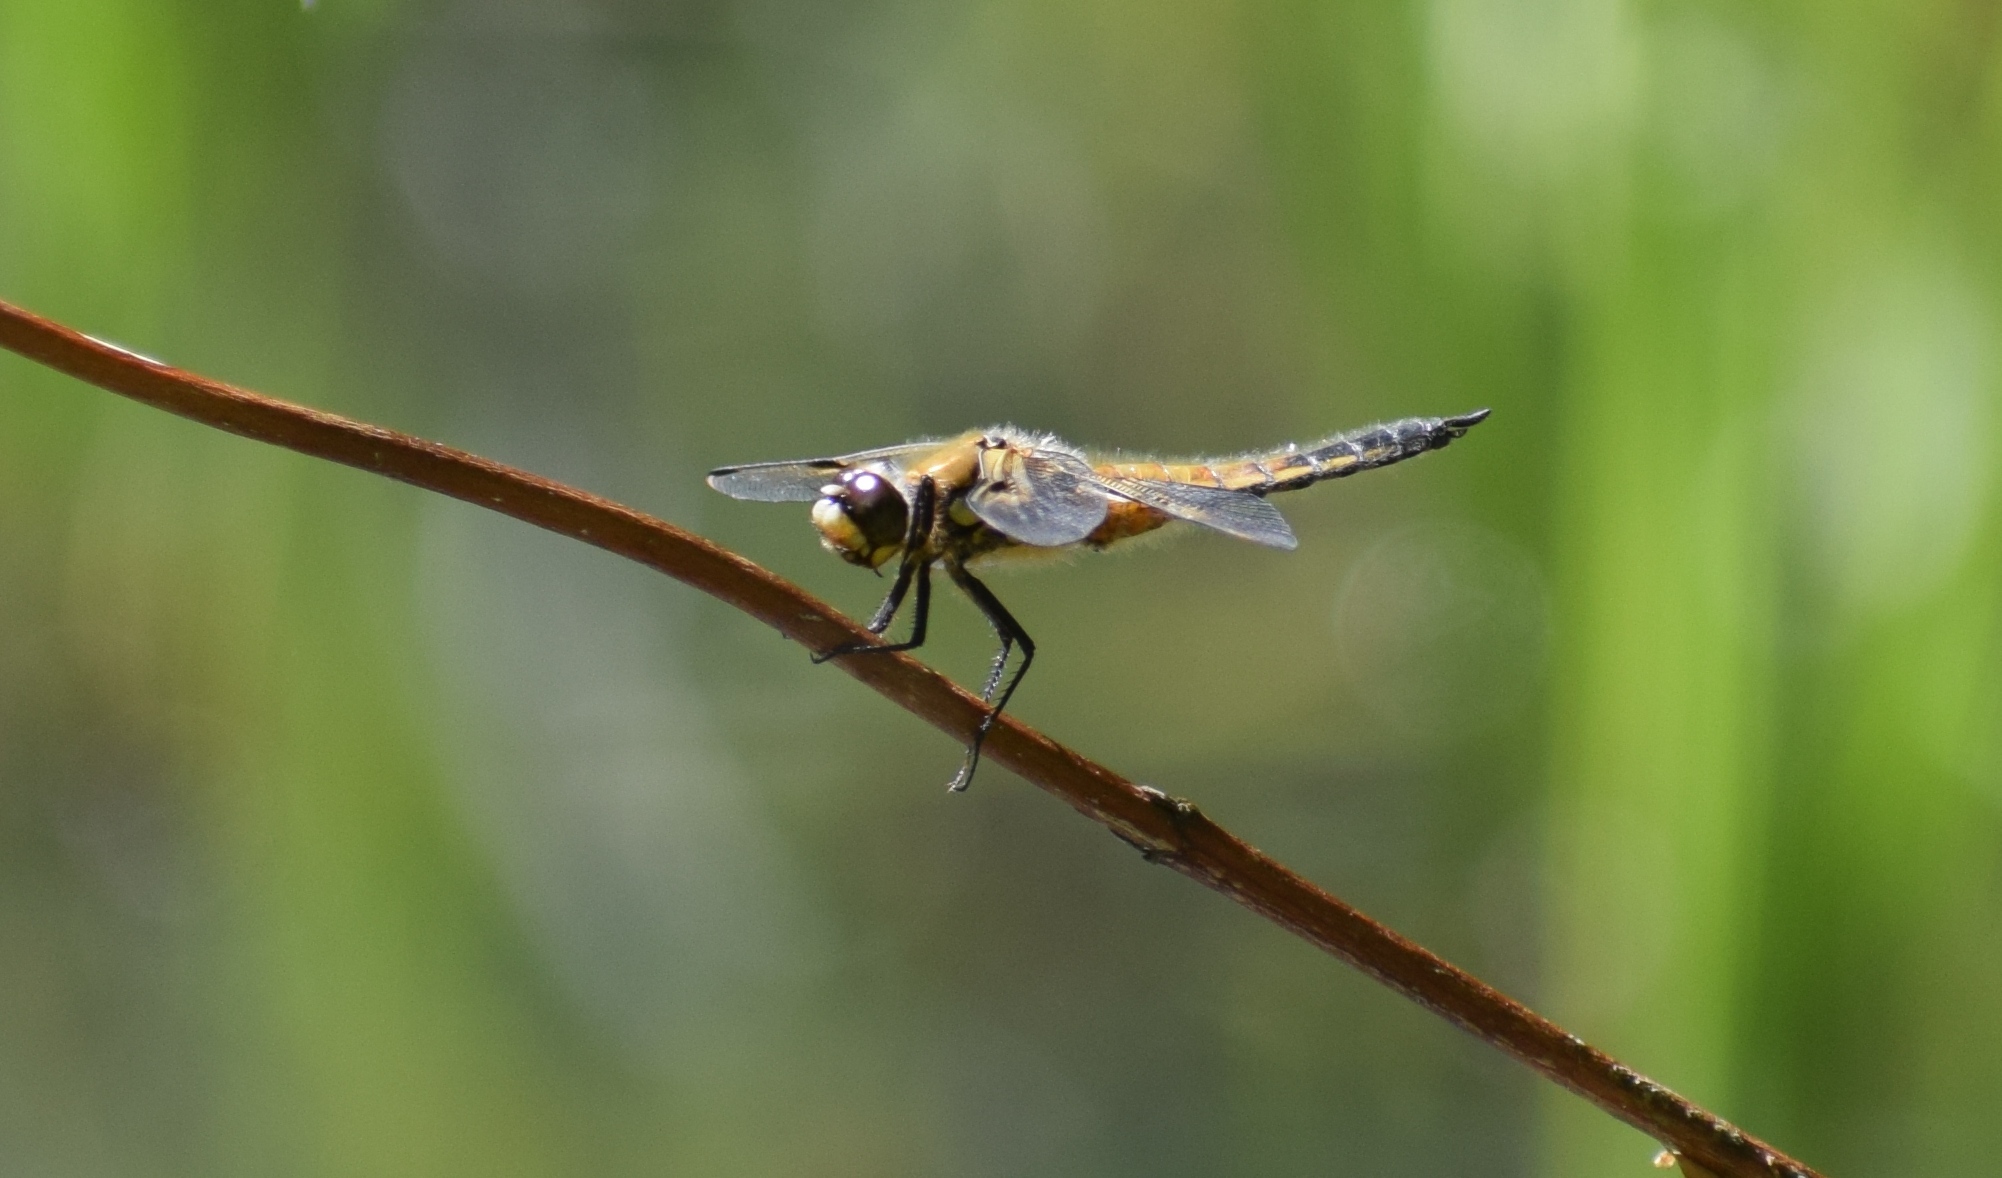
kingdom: Animalia
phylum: Arthropoda
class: Insecta
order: Odonata
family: Libellulidae
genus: Libellula
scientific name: Libellula quadrimaculata
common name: Four-spotted chaser
